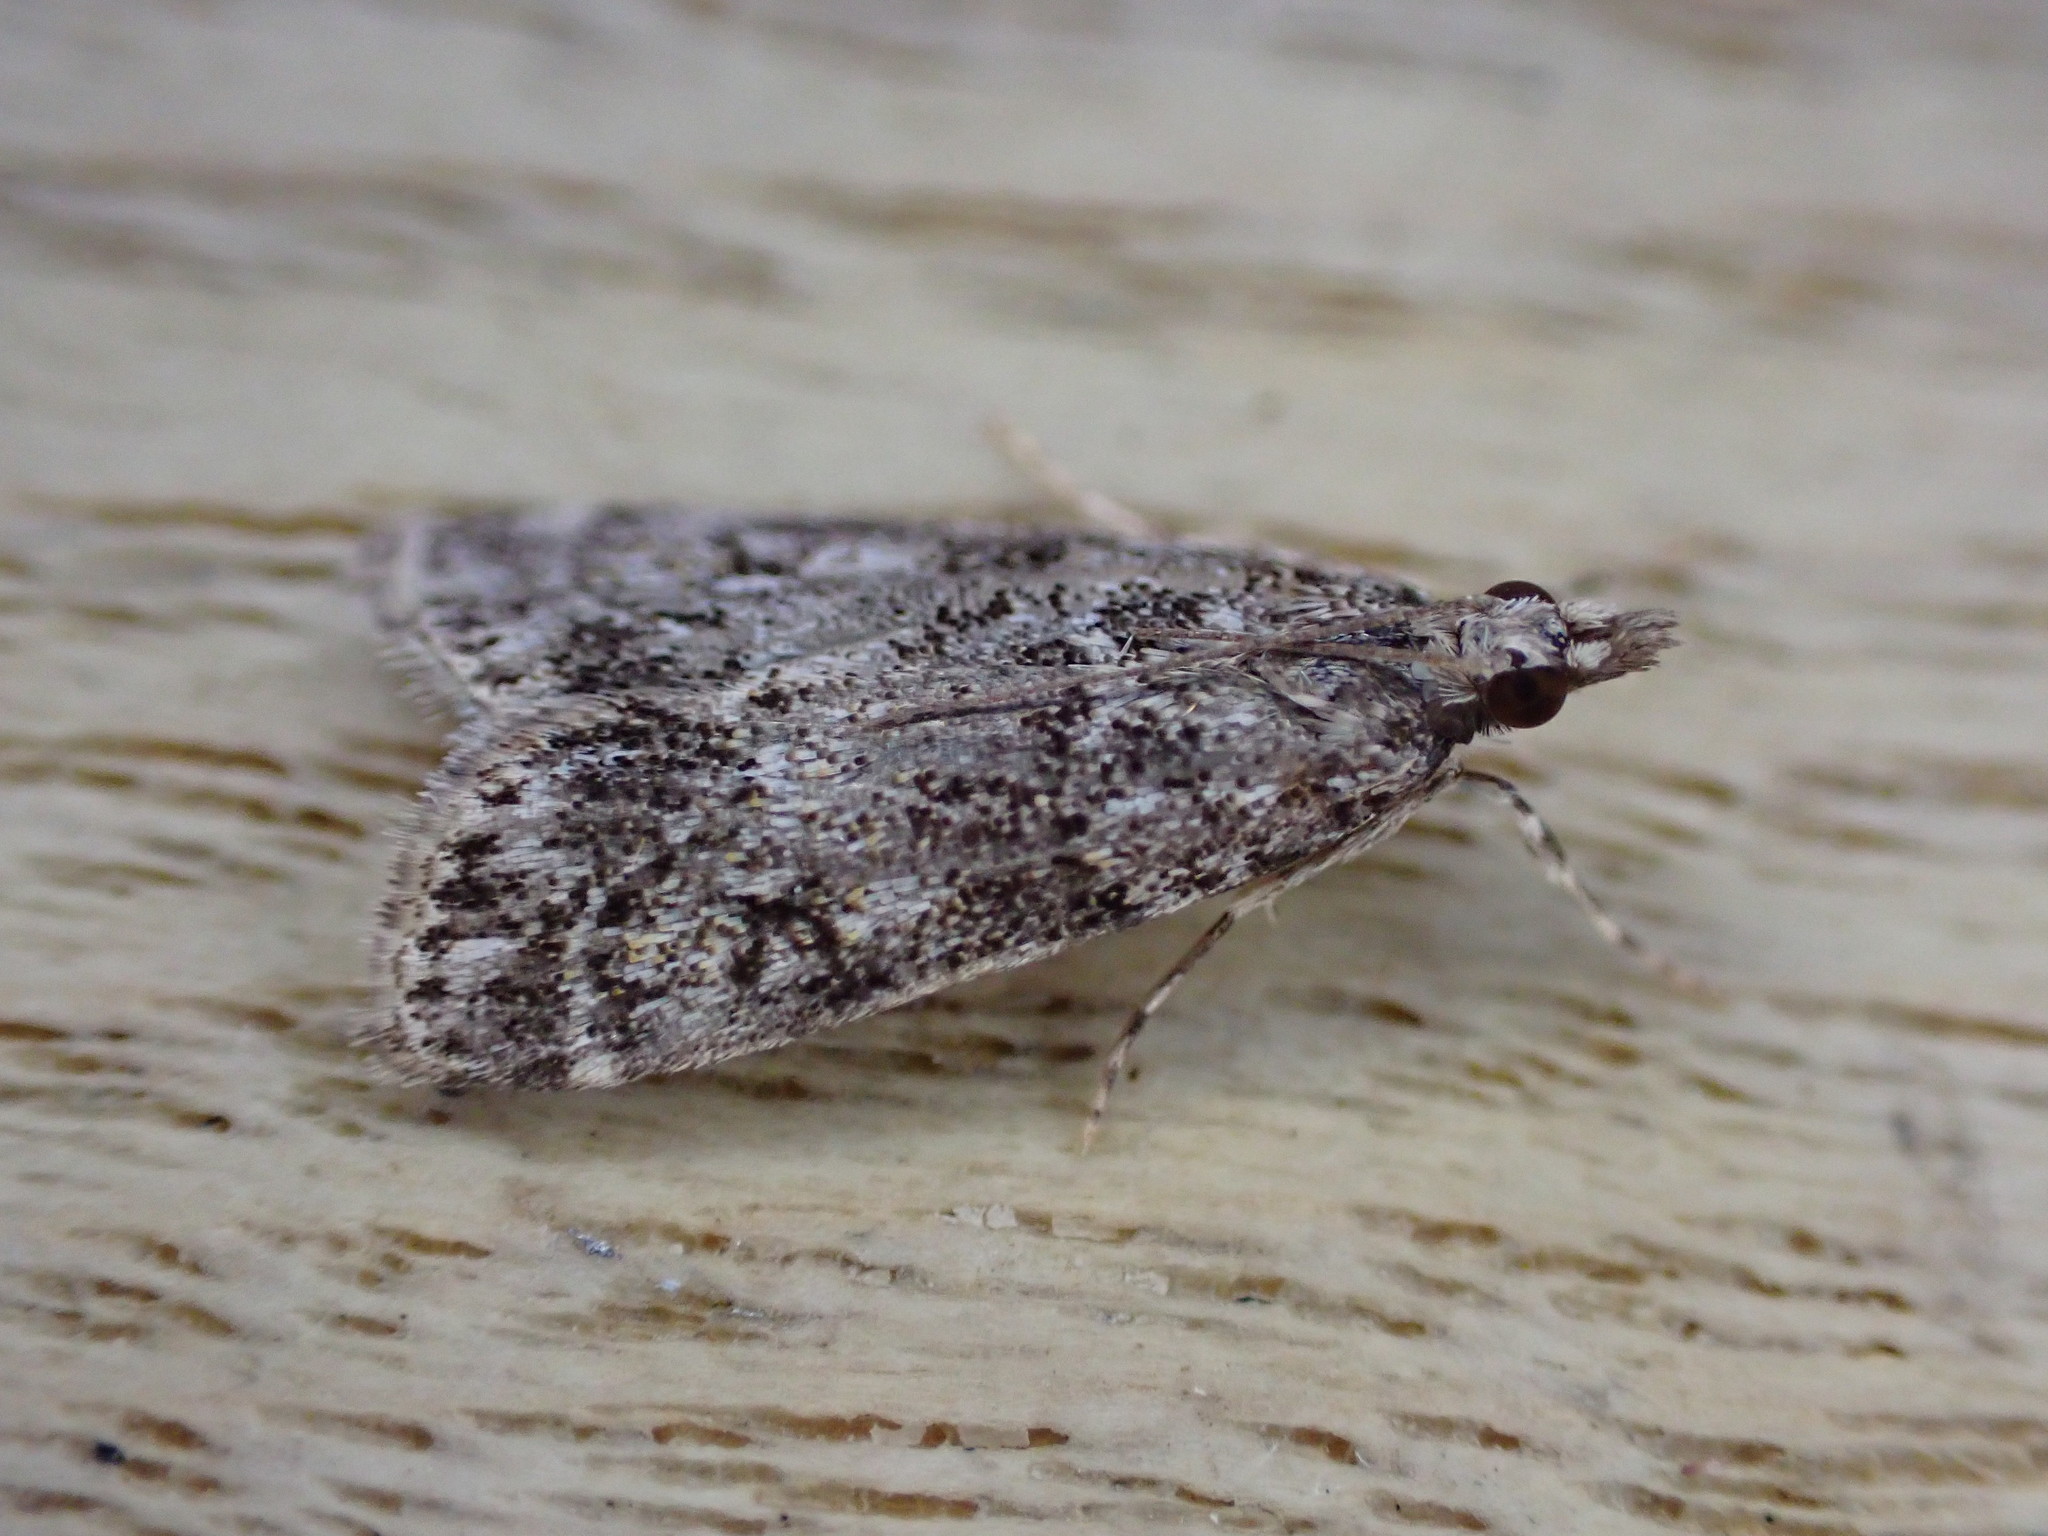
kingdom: Animalia
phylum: Arthropoda
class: Insecta
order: Lepidoptera
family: Crambidae
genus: Eudonia
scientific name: Eudonia lacustrata
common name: Little grey
